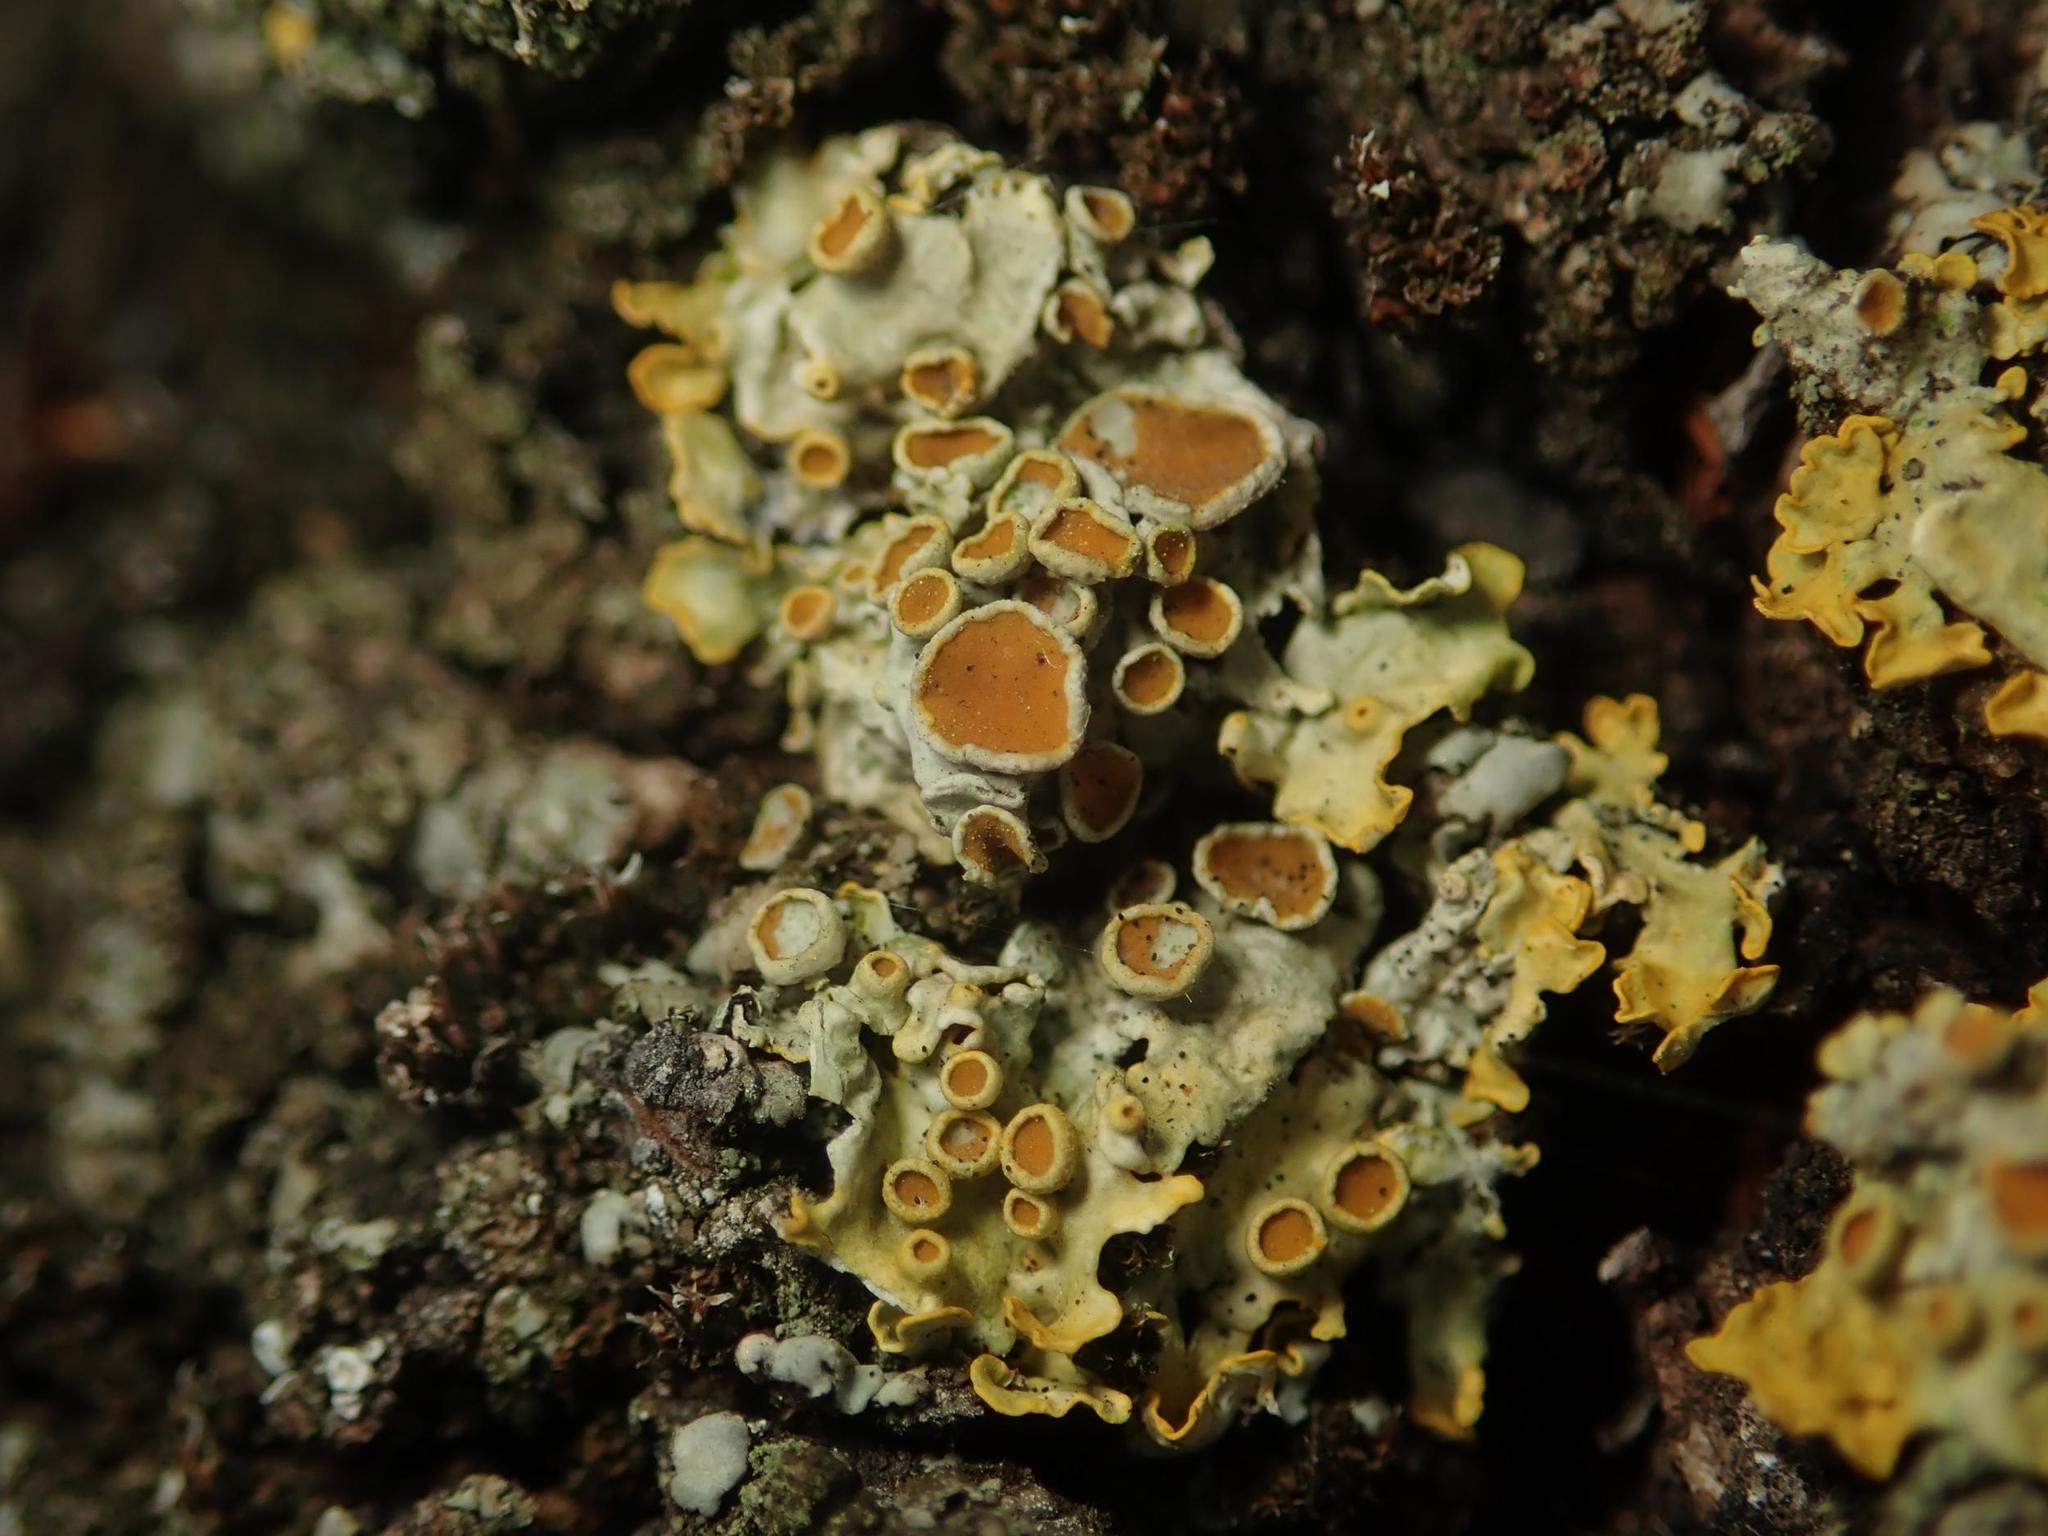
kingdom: Fungi
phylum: Ascomycota
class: Lecanoromycetes
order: Teloschistales
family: Teloschistaceae
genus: Xanthoria
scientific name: Xanthoria parietina
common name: Common orange lichen
